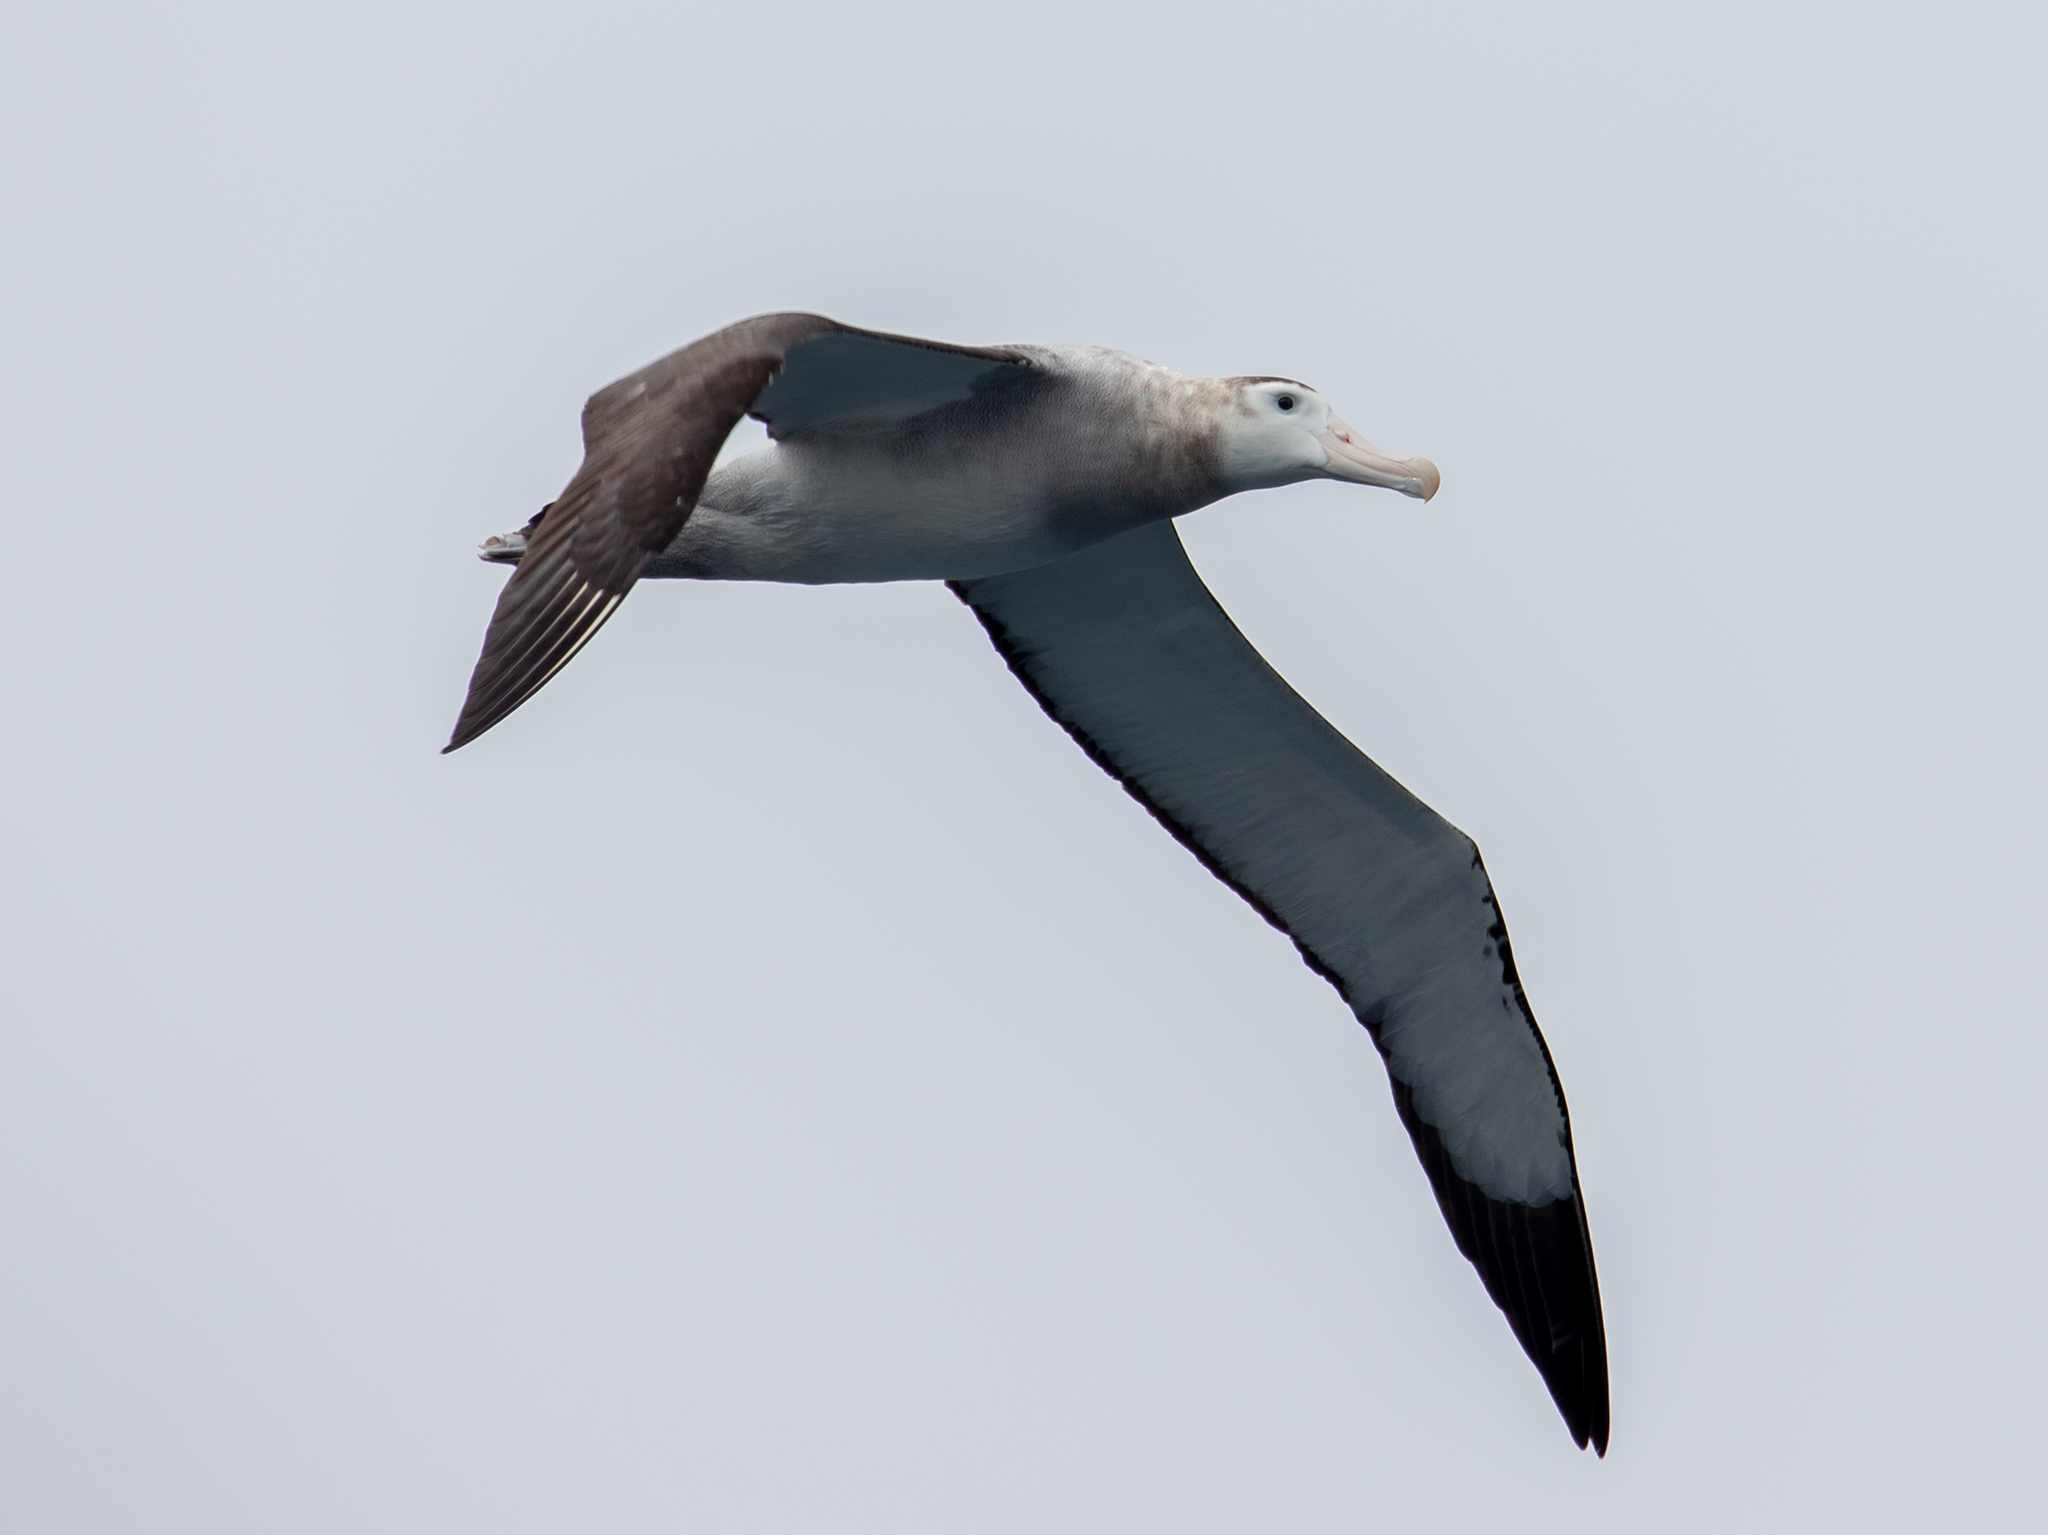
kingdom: Animalia
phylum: Chordata
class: Aves
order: Procellariiformes
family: Diomedeidae
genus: Diomedea
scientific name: Diomedea antipodensis
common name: Antipodean albatross
